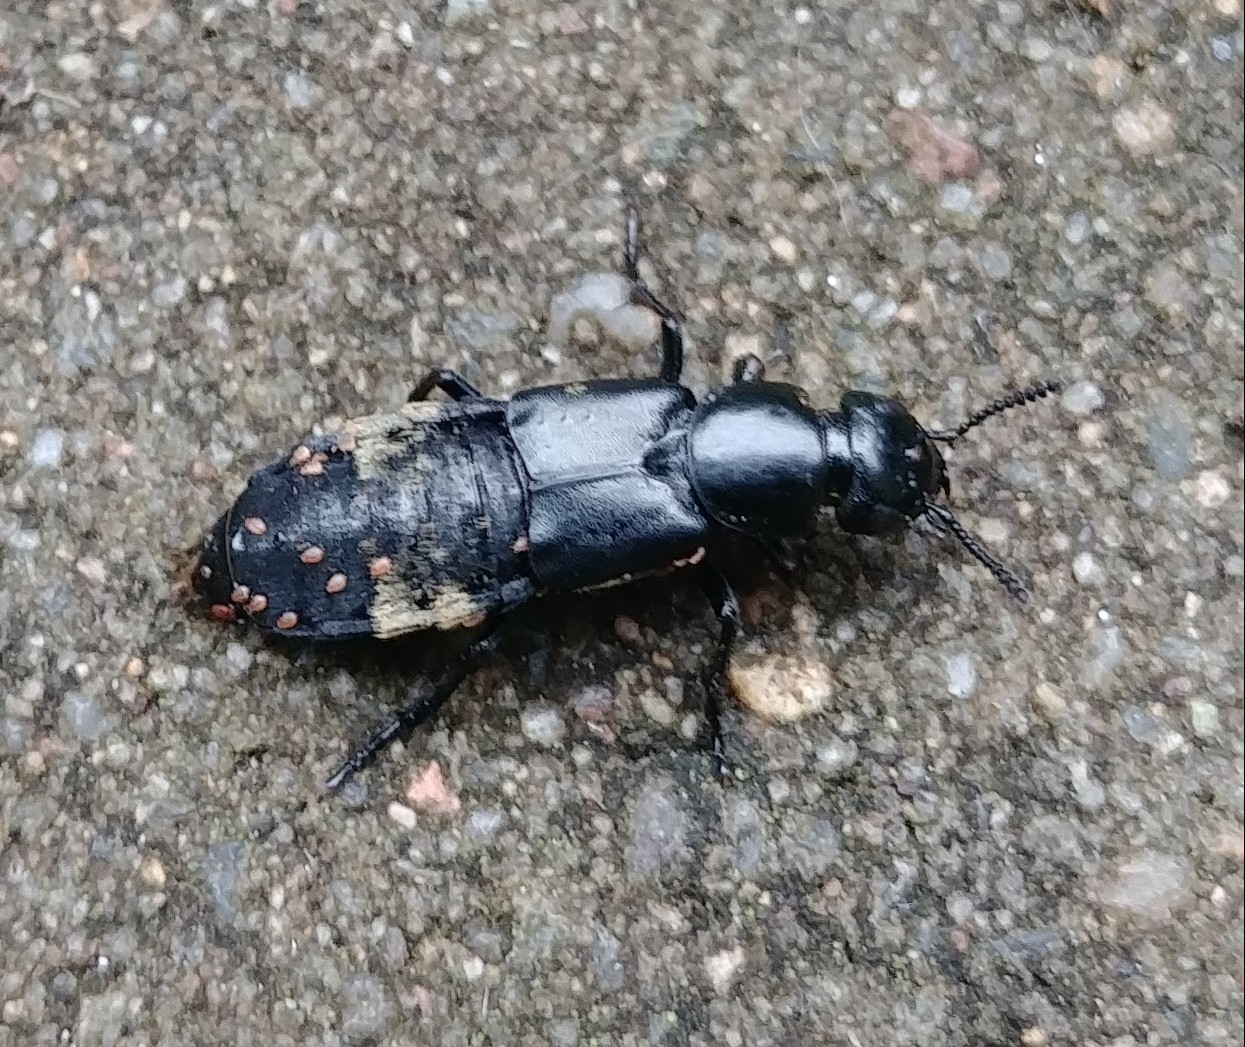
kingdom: Animalia
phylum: Arthropoda
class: Insecta
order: Coleoptera
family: Staphylinidae
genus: Creophilus
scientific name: Creophilus maxillosus
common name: Hairy rove beetle
